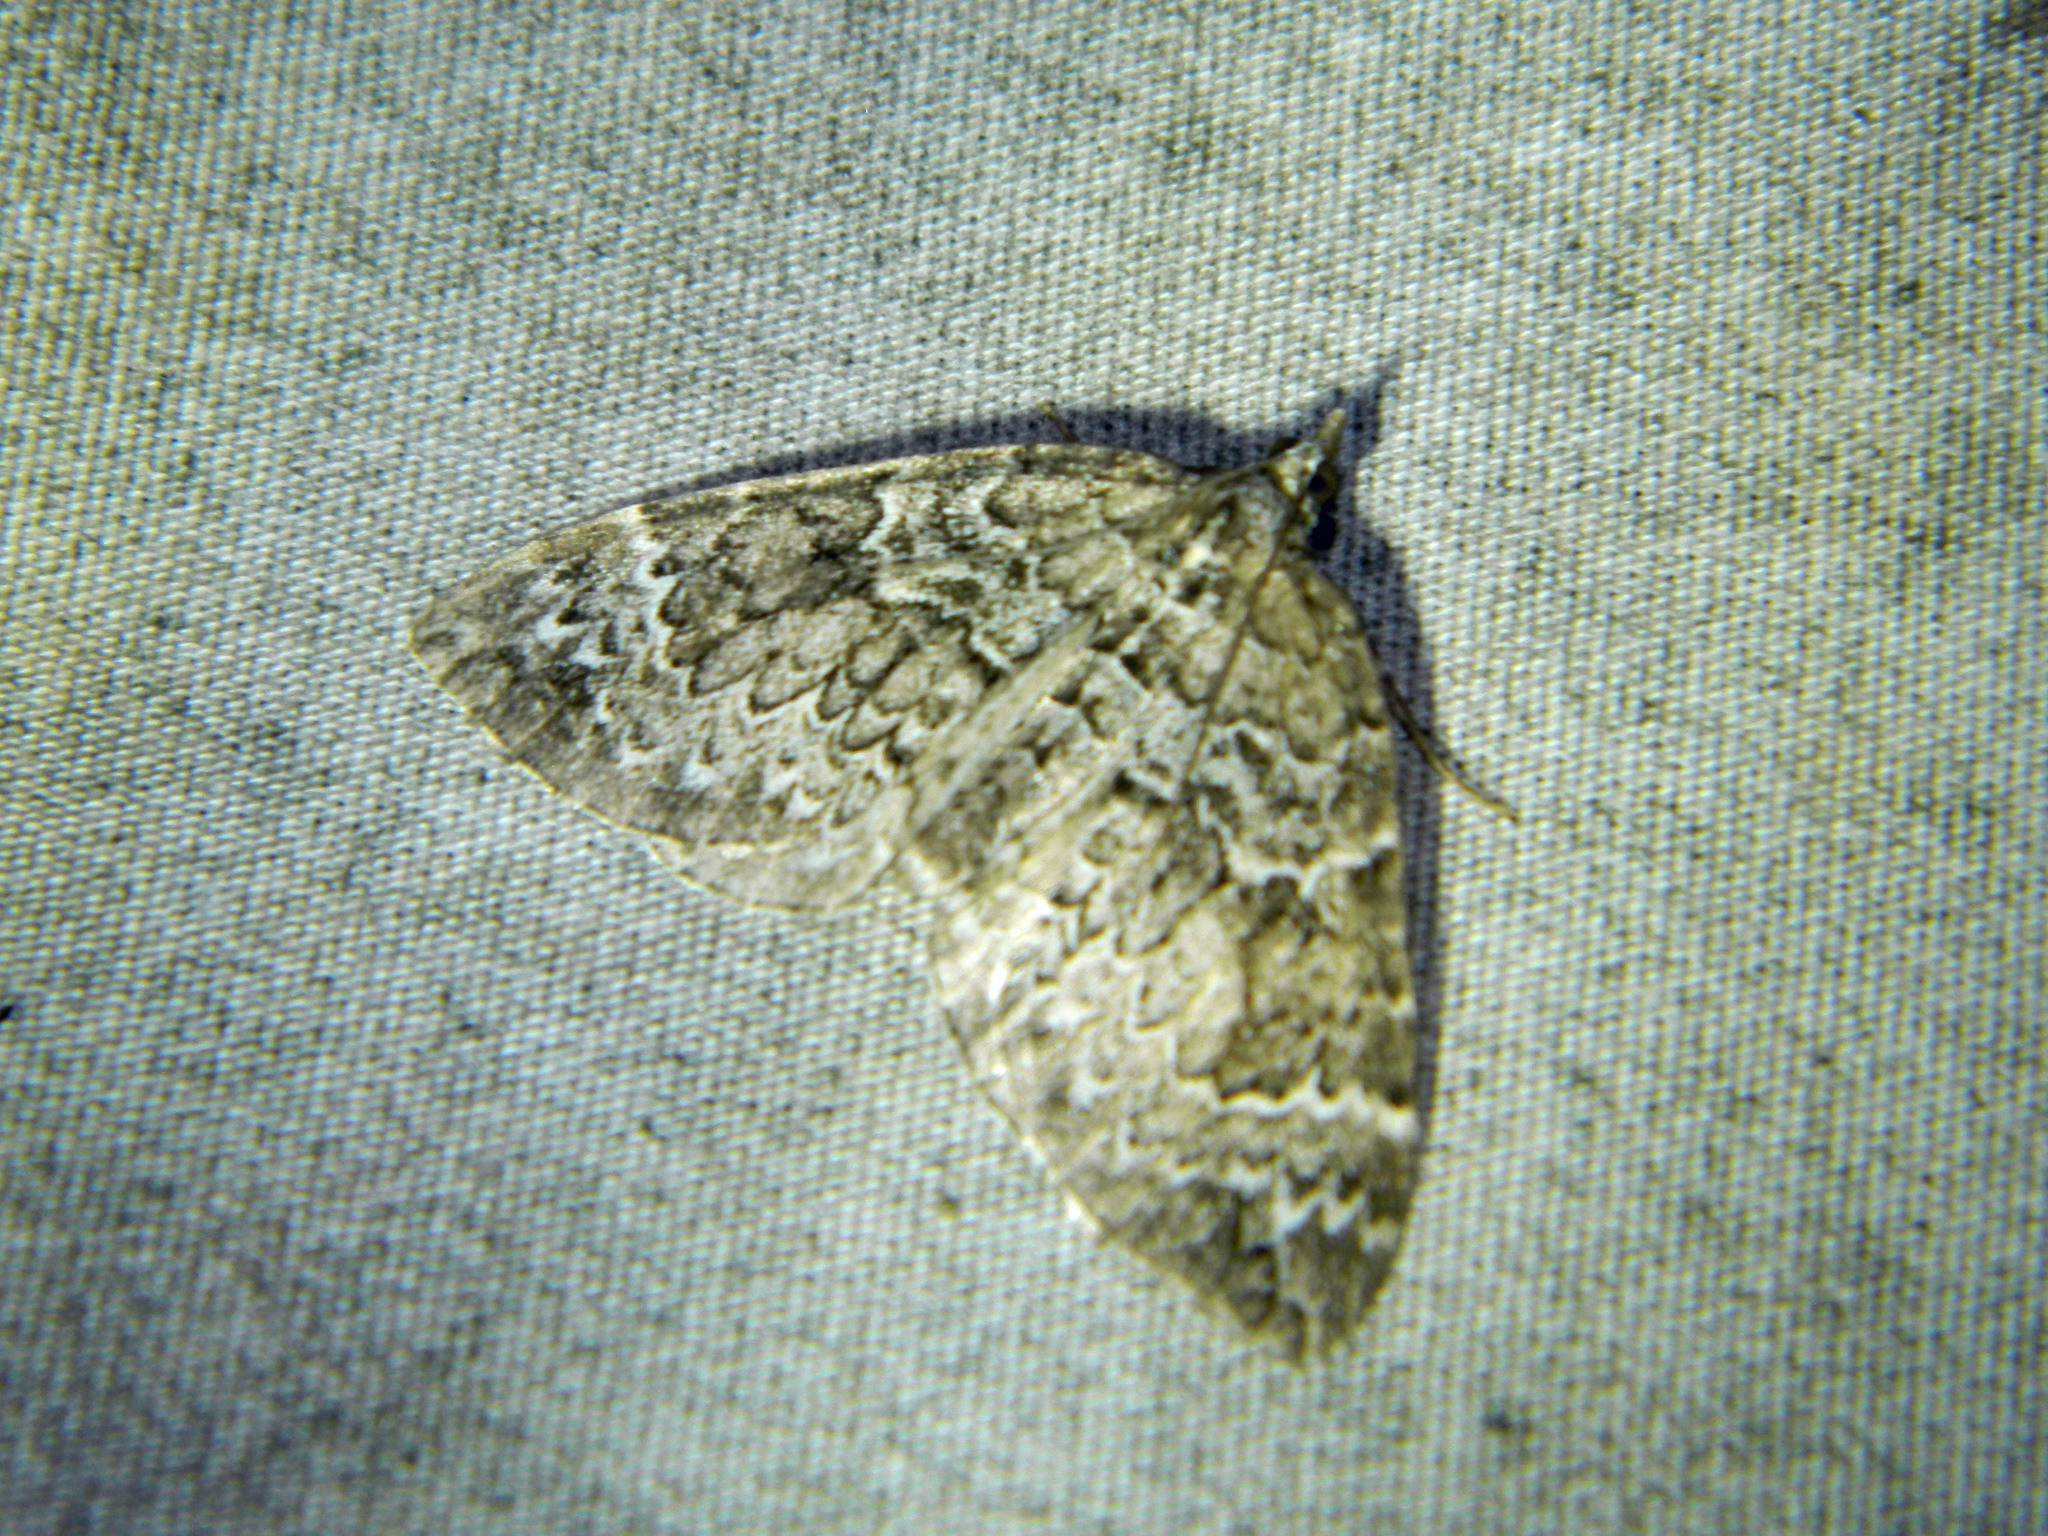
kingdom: Animalia
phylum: Arthropoda
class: Insecta
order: Lepidoptera
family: Geometridae
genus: Eulithis
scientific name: Eulithis explanata
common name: White eulithis
